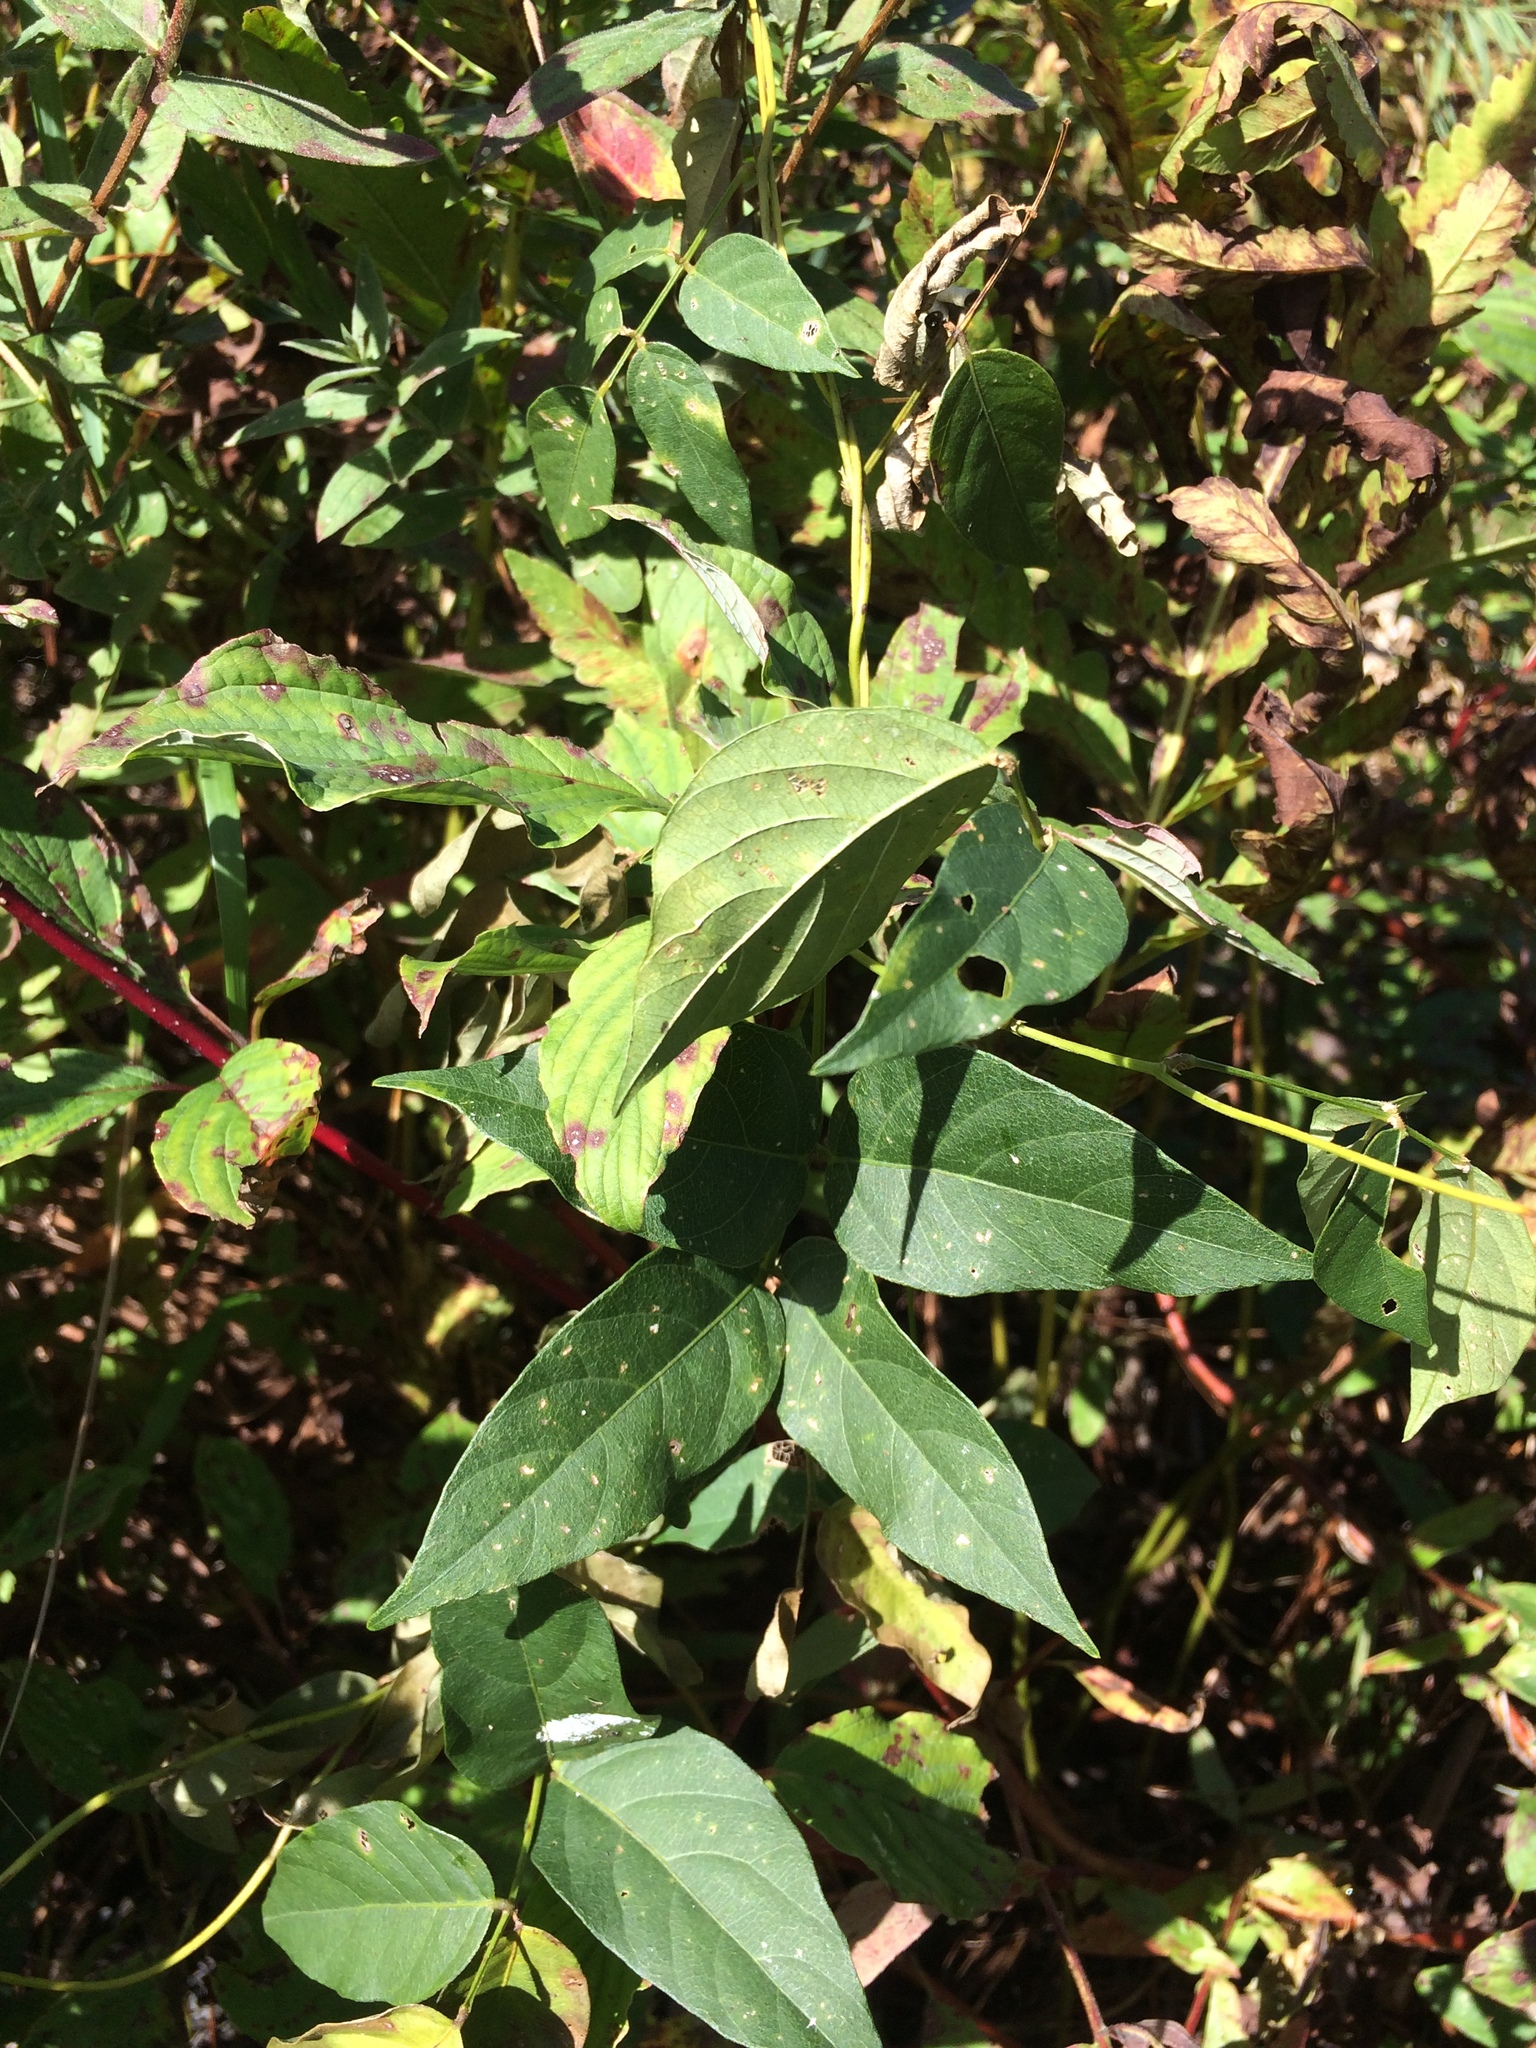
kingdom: Plantae
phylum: Tracheophyta
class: Magnoliopsida
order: Fabales
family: Fabaceae
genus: Apios
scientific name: Apios americana
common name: American potato-bean
